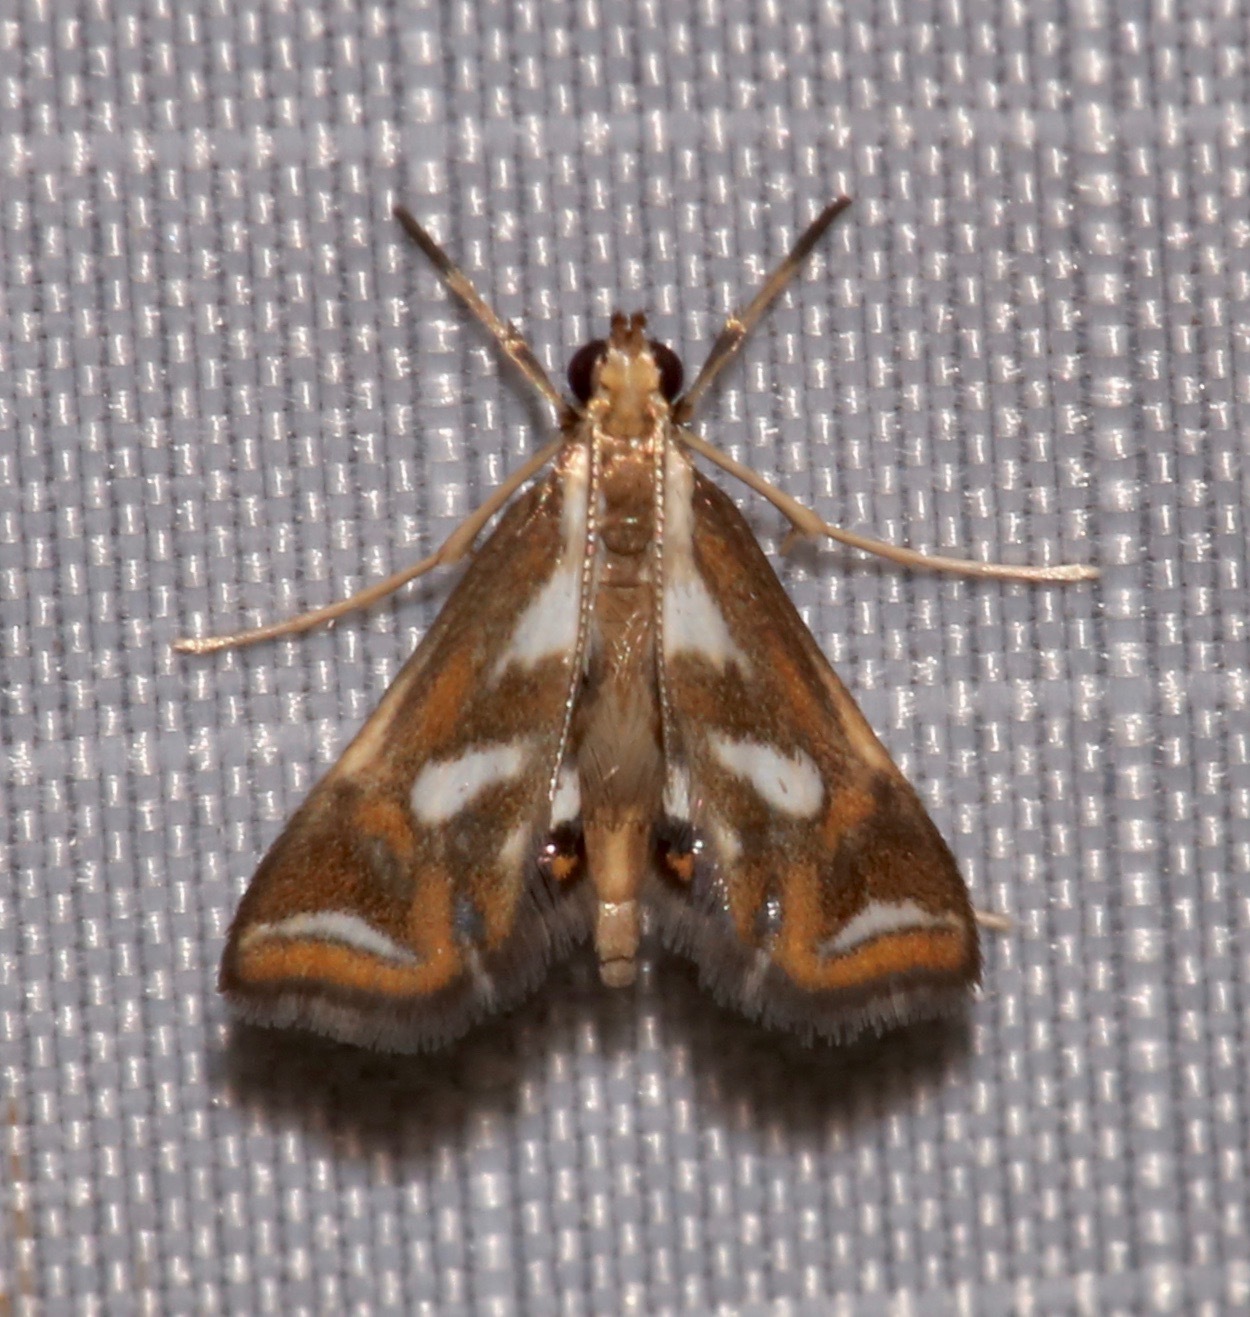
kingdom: Animalia
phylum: Arthropoda
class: Insecta
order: Lepidoptera
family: Crambidae
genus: Chrysendeton
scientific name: Chrysendeton imitabilis
